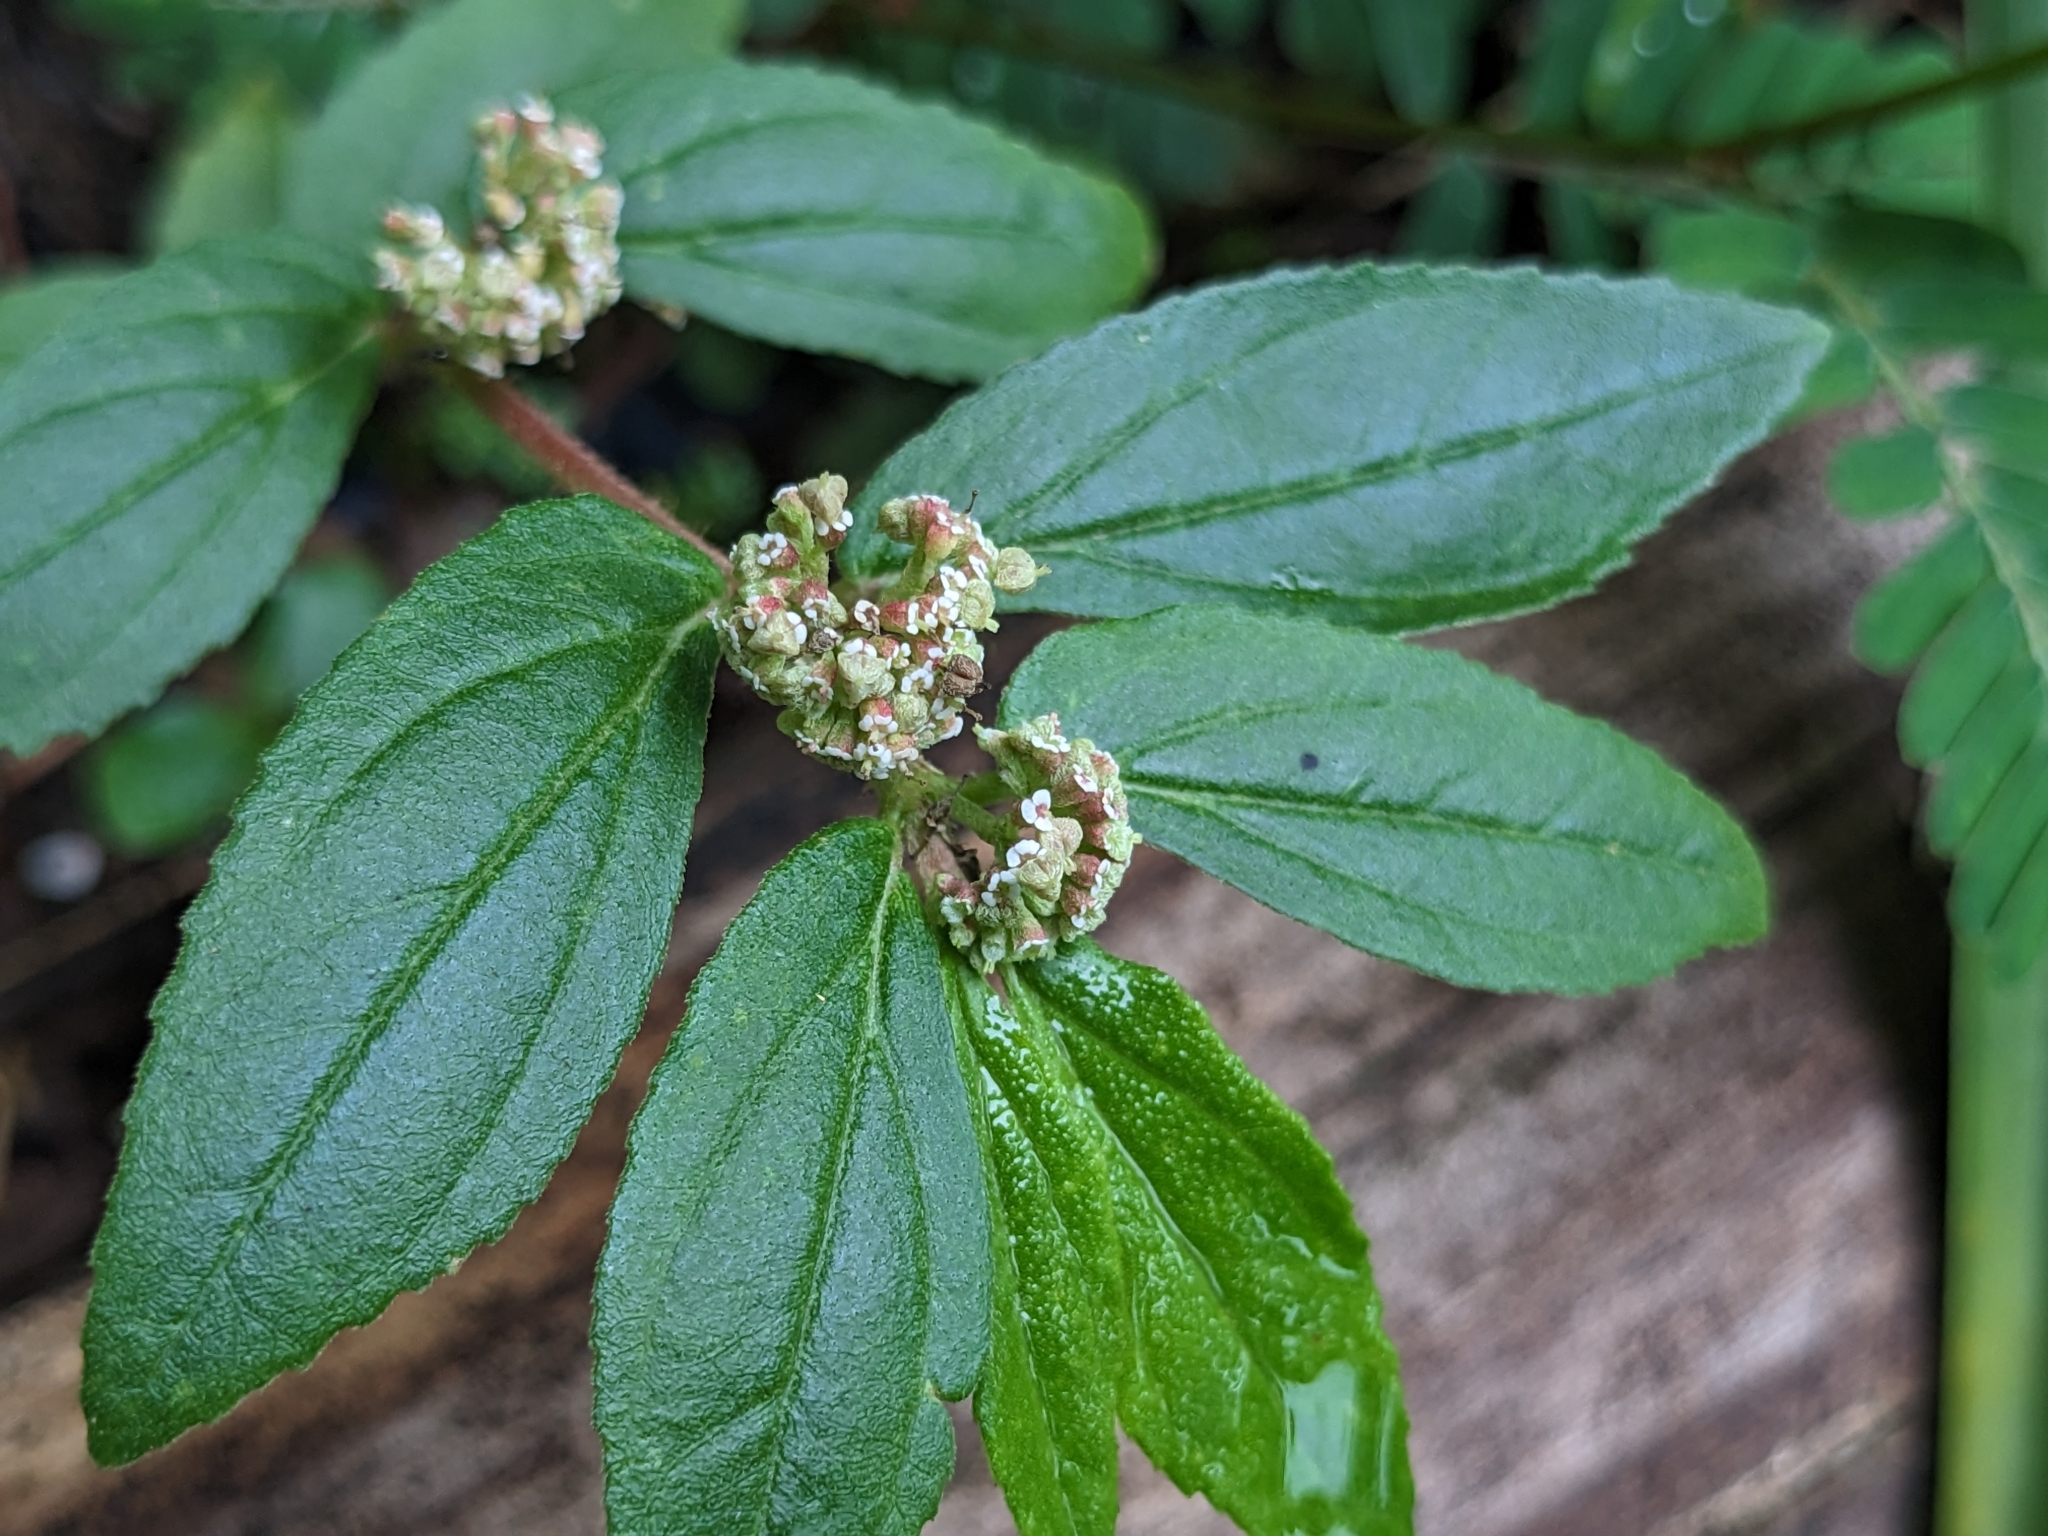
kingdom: Plantae
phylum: Tracheophyta
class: Magnoliopsida
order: Malpighiales
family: Euphorbiaceae
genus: Euphorbia
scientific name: Euphorbia hirta
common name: Pillpod sandmat
